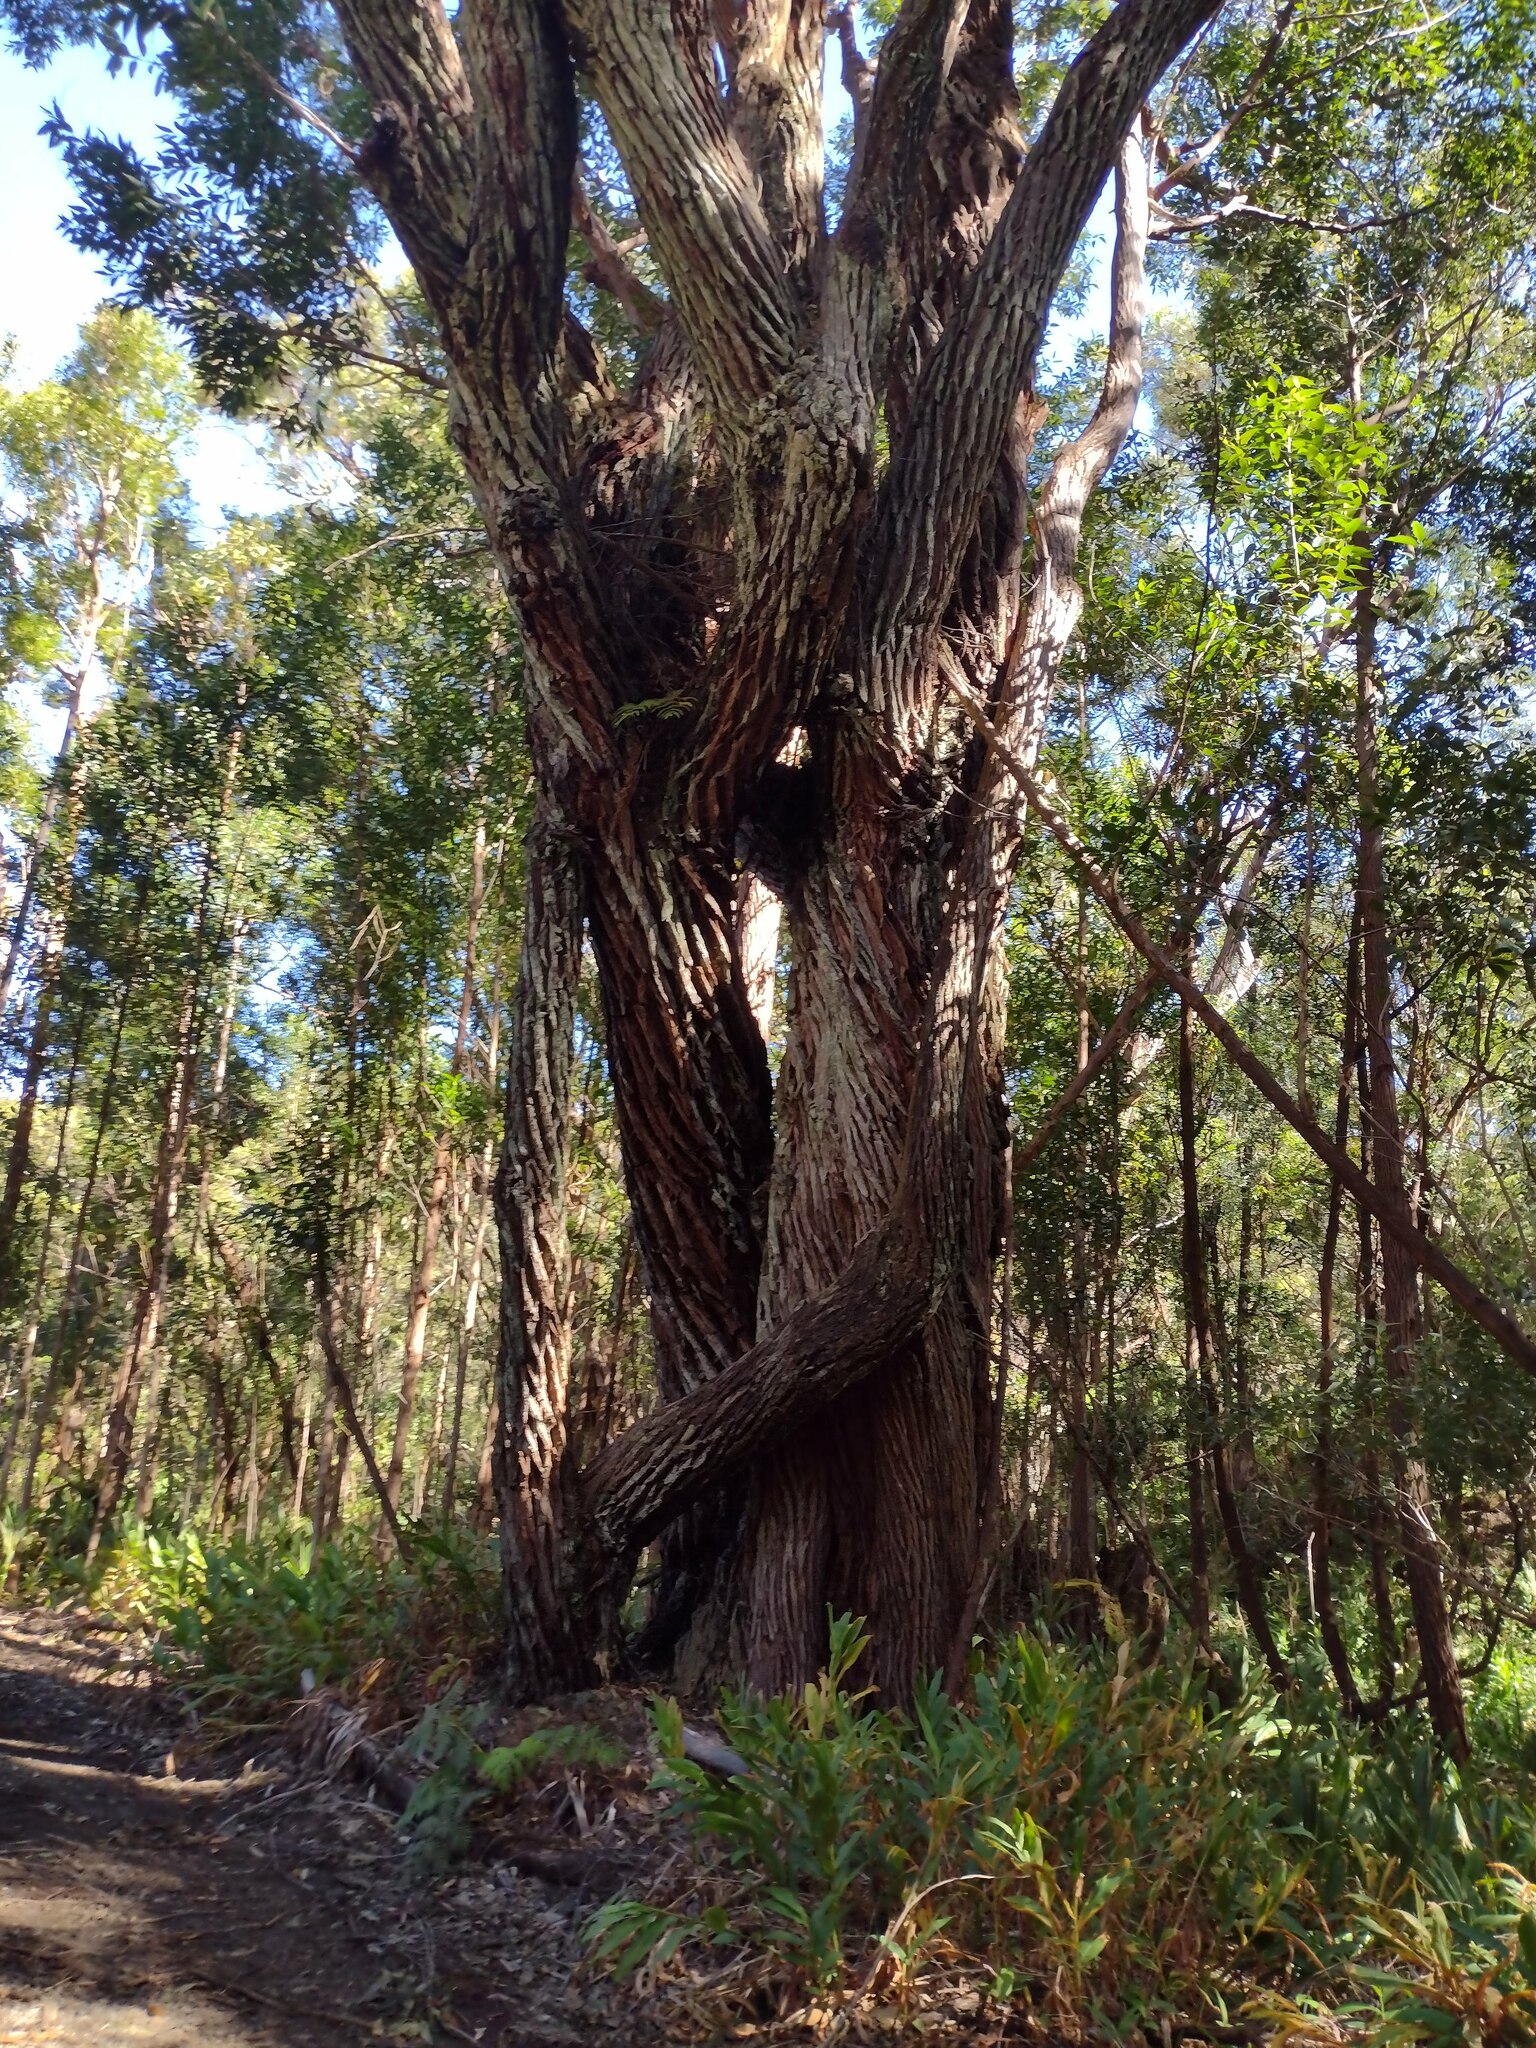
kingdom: Plantae
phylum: Tracheophyta
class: Magnoliopsida
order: Myrtales
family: Myrtaceae
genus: Eucalyptus
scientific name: Eucalyptus robusta
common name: Swampmahogany
